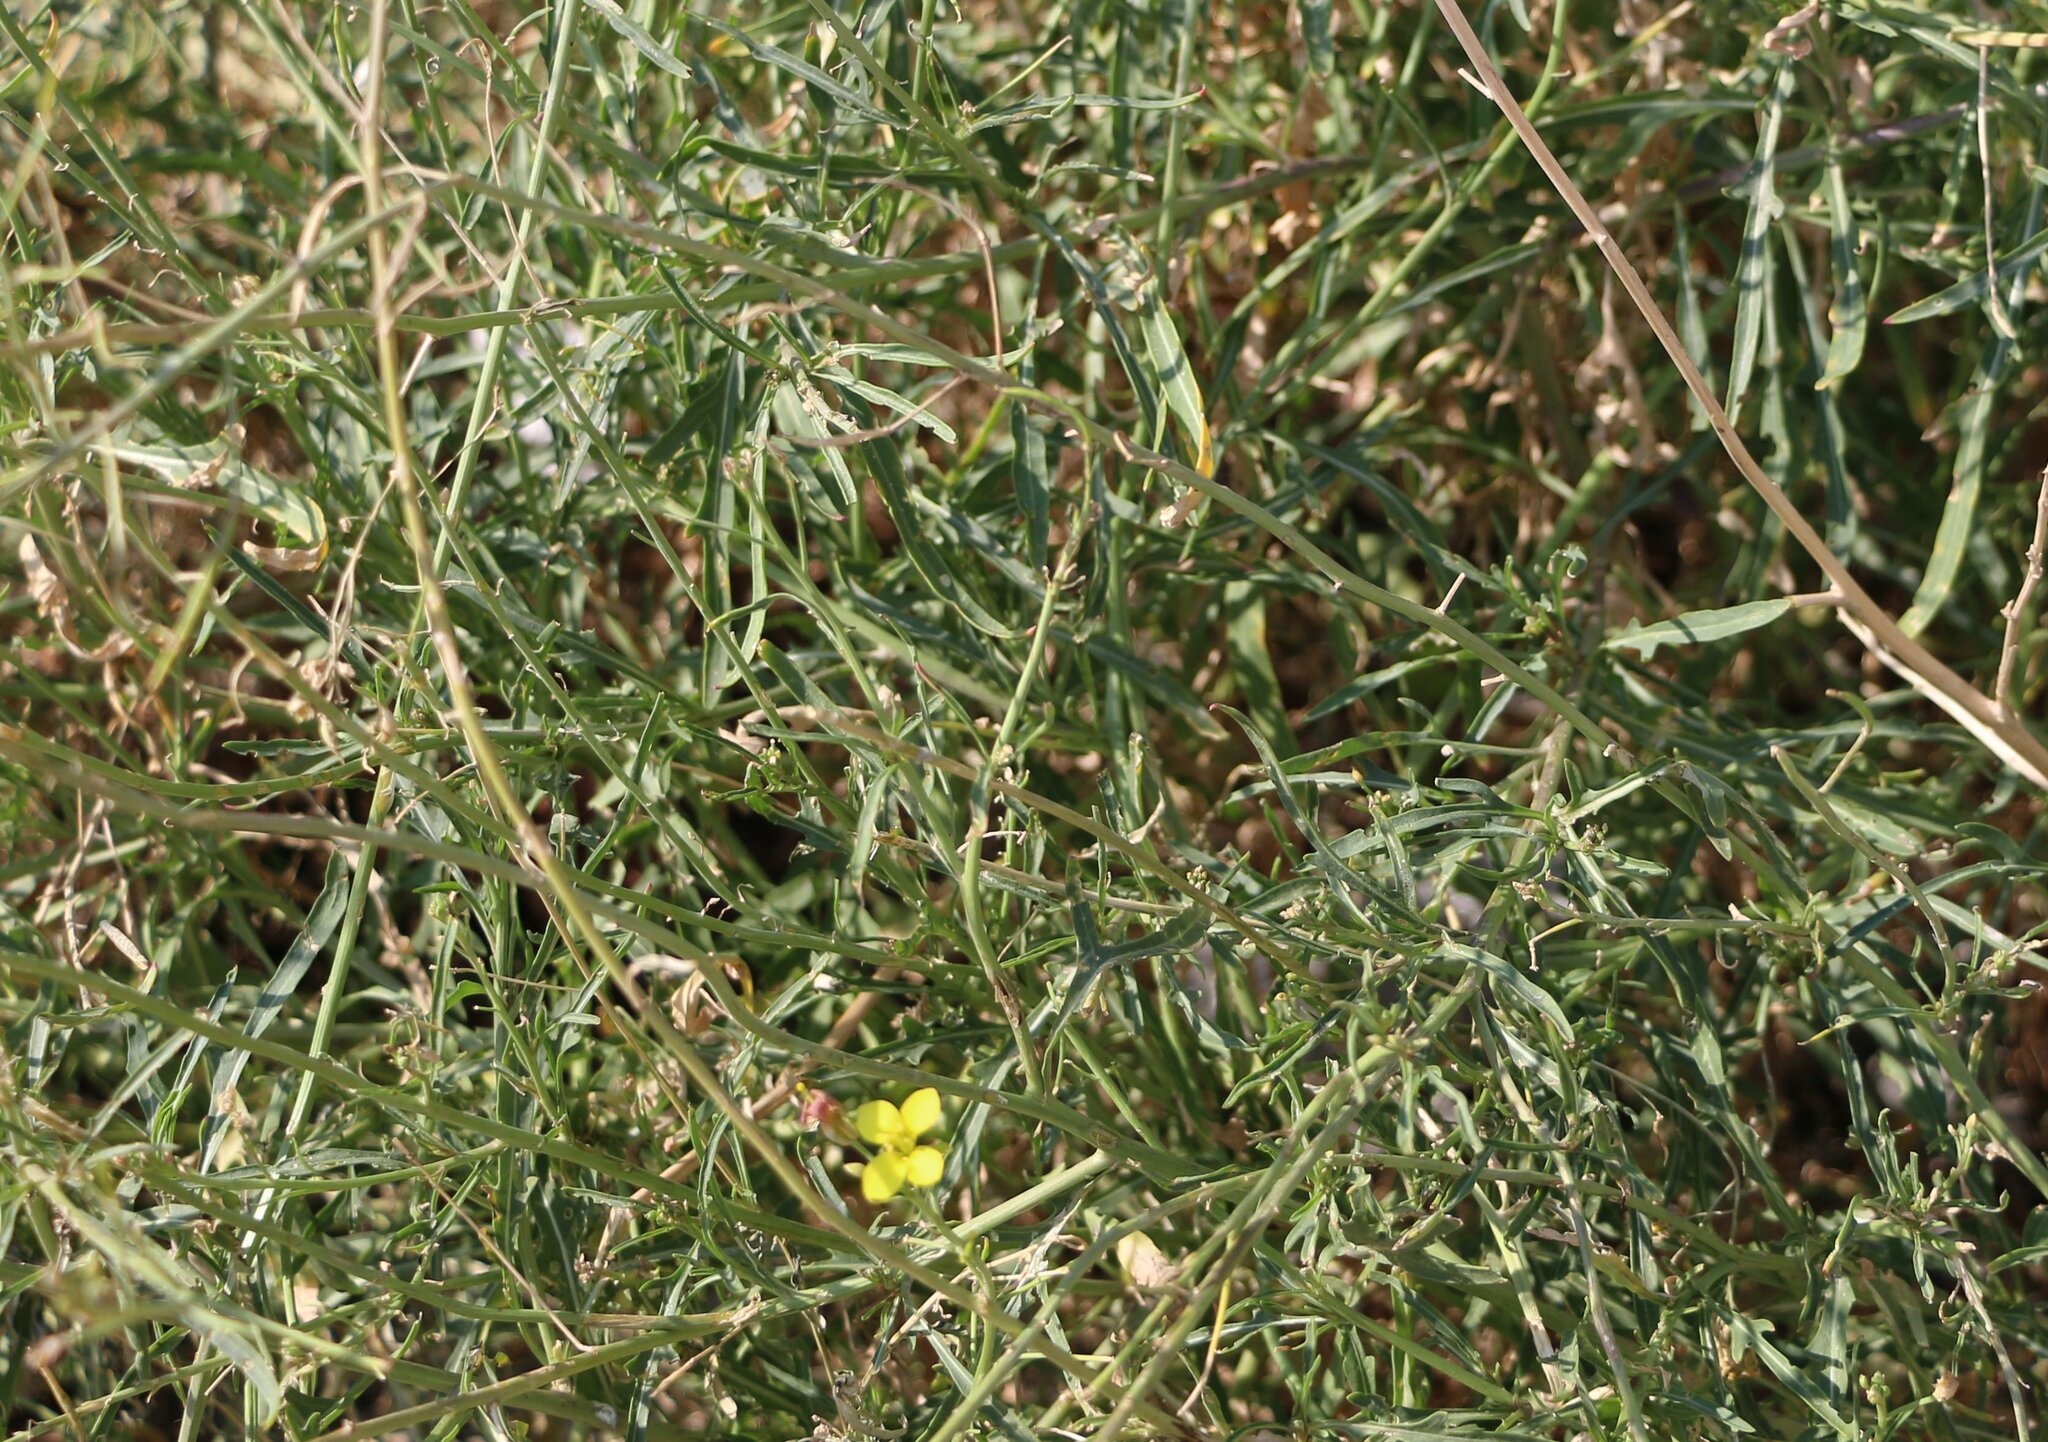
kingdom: Plantae
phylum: Tracheophyta
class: Magnoliopsida
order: Brassicales
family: Brassicaceae
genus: Diplotaxis
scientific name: Diplotaxis tenuifolia
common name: Perennial wall-rocket
